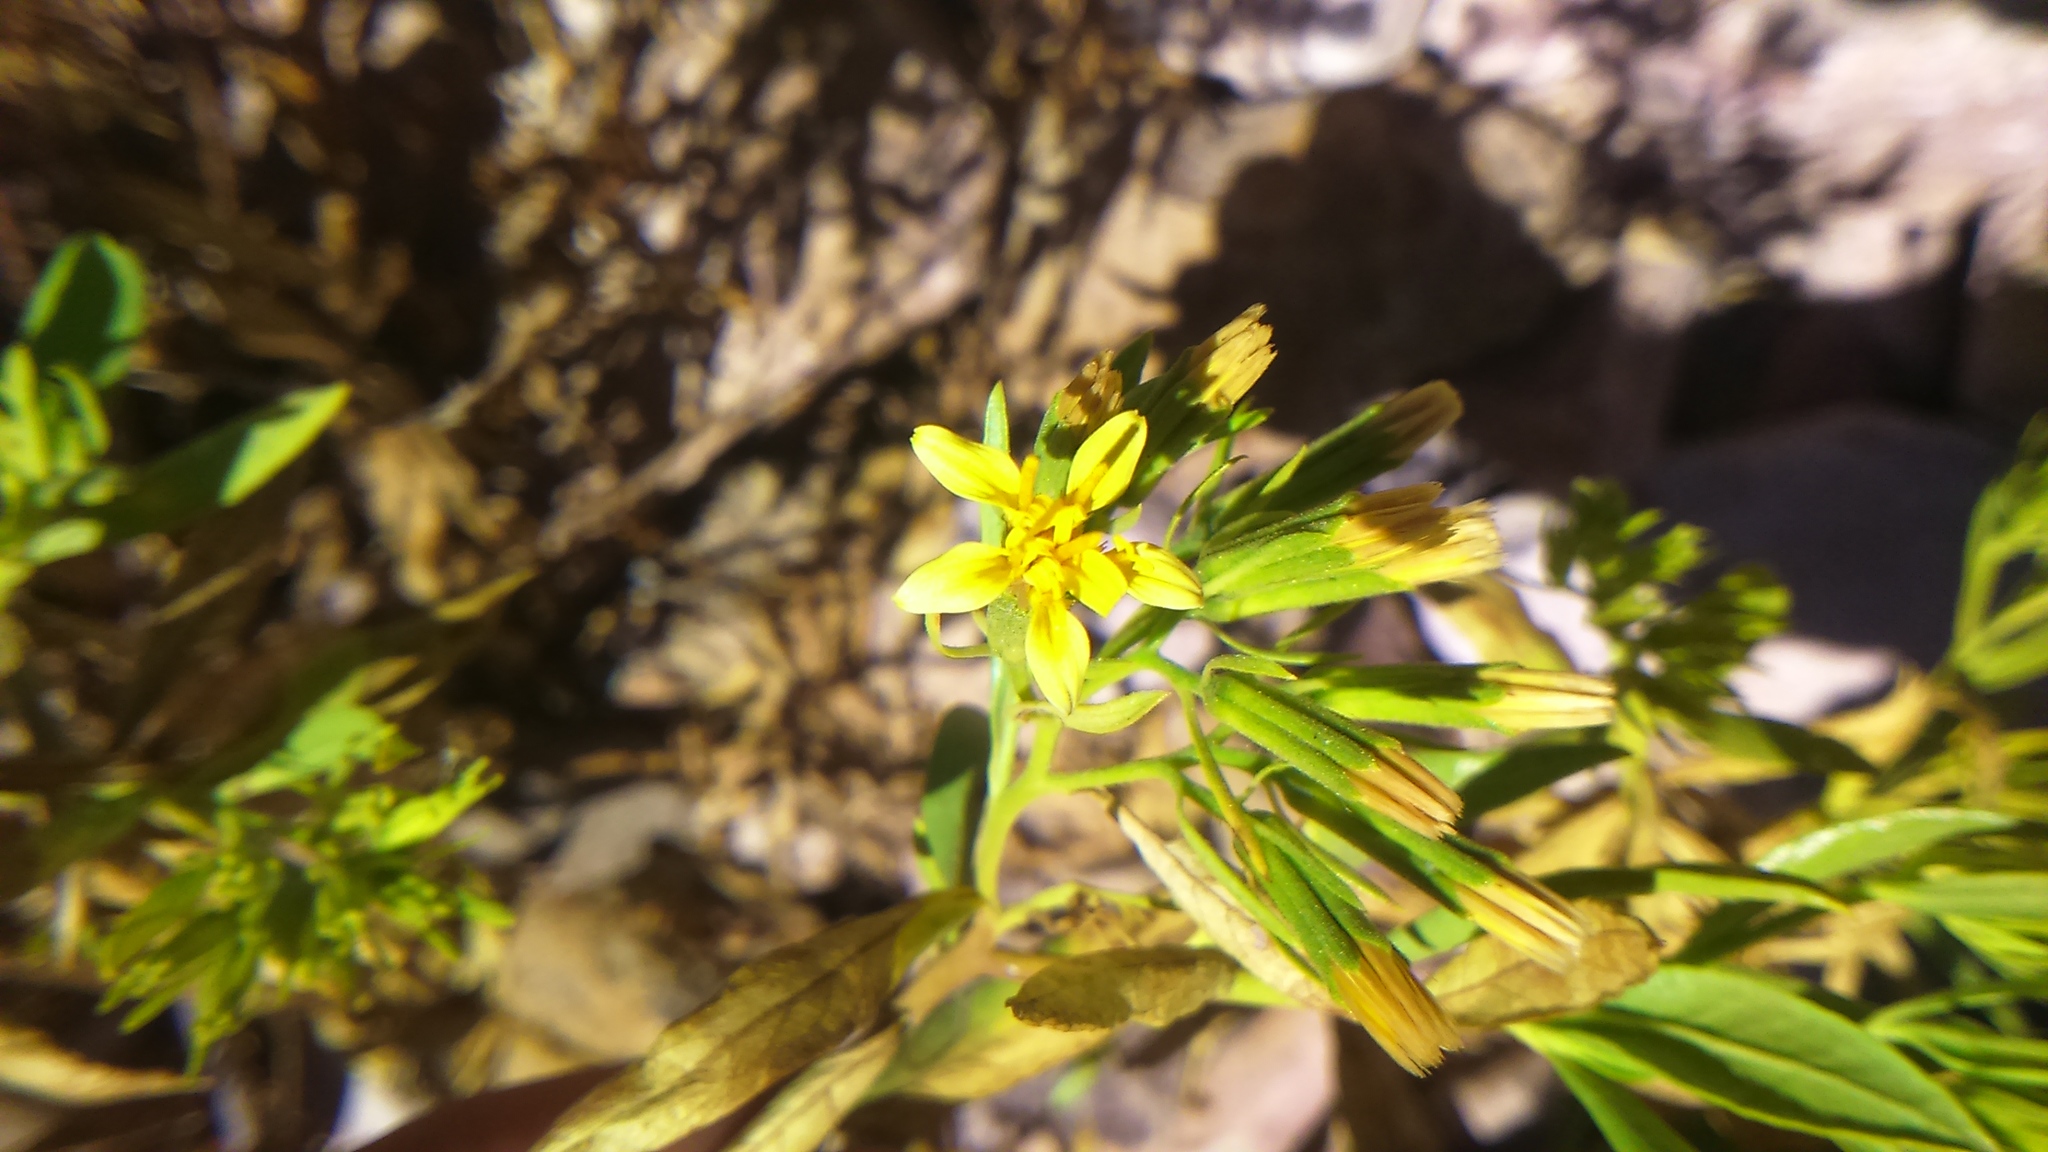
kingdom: Plantae
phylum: Tracheophyta
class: Magnoliopsida
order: Asterales
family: Asteraceae
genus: Trixis
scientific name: Trixis cacalioides
